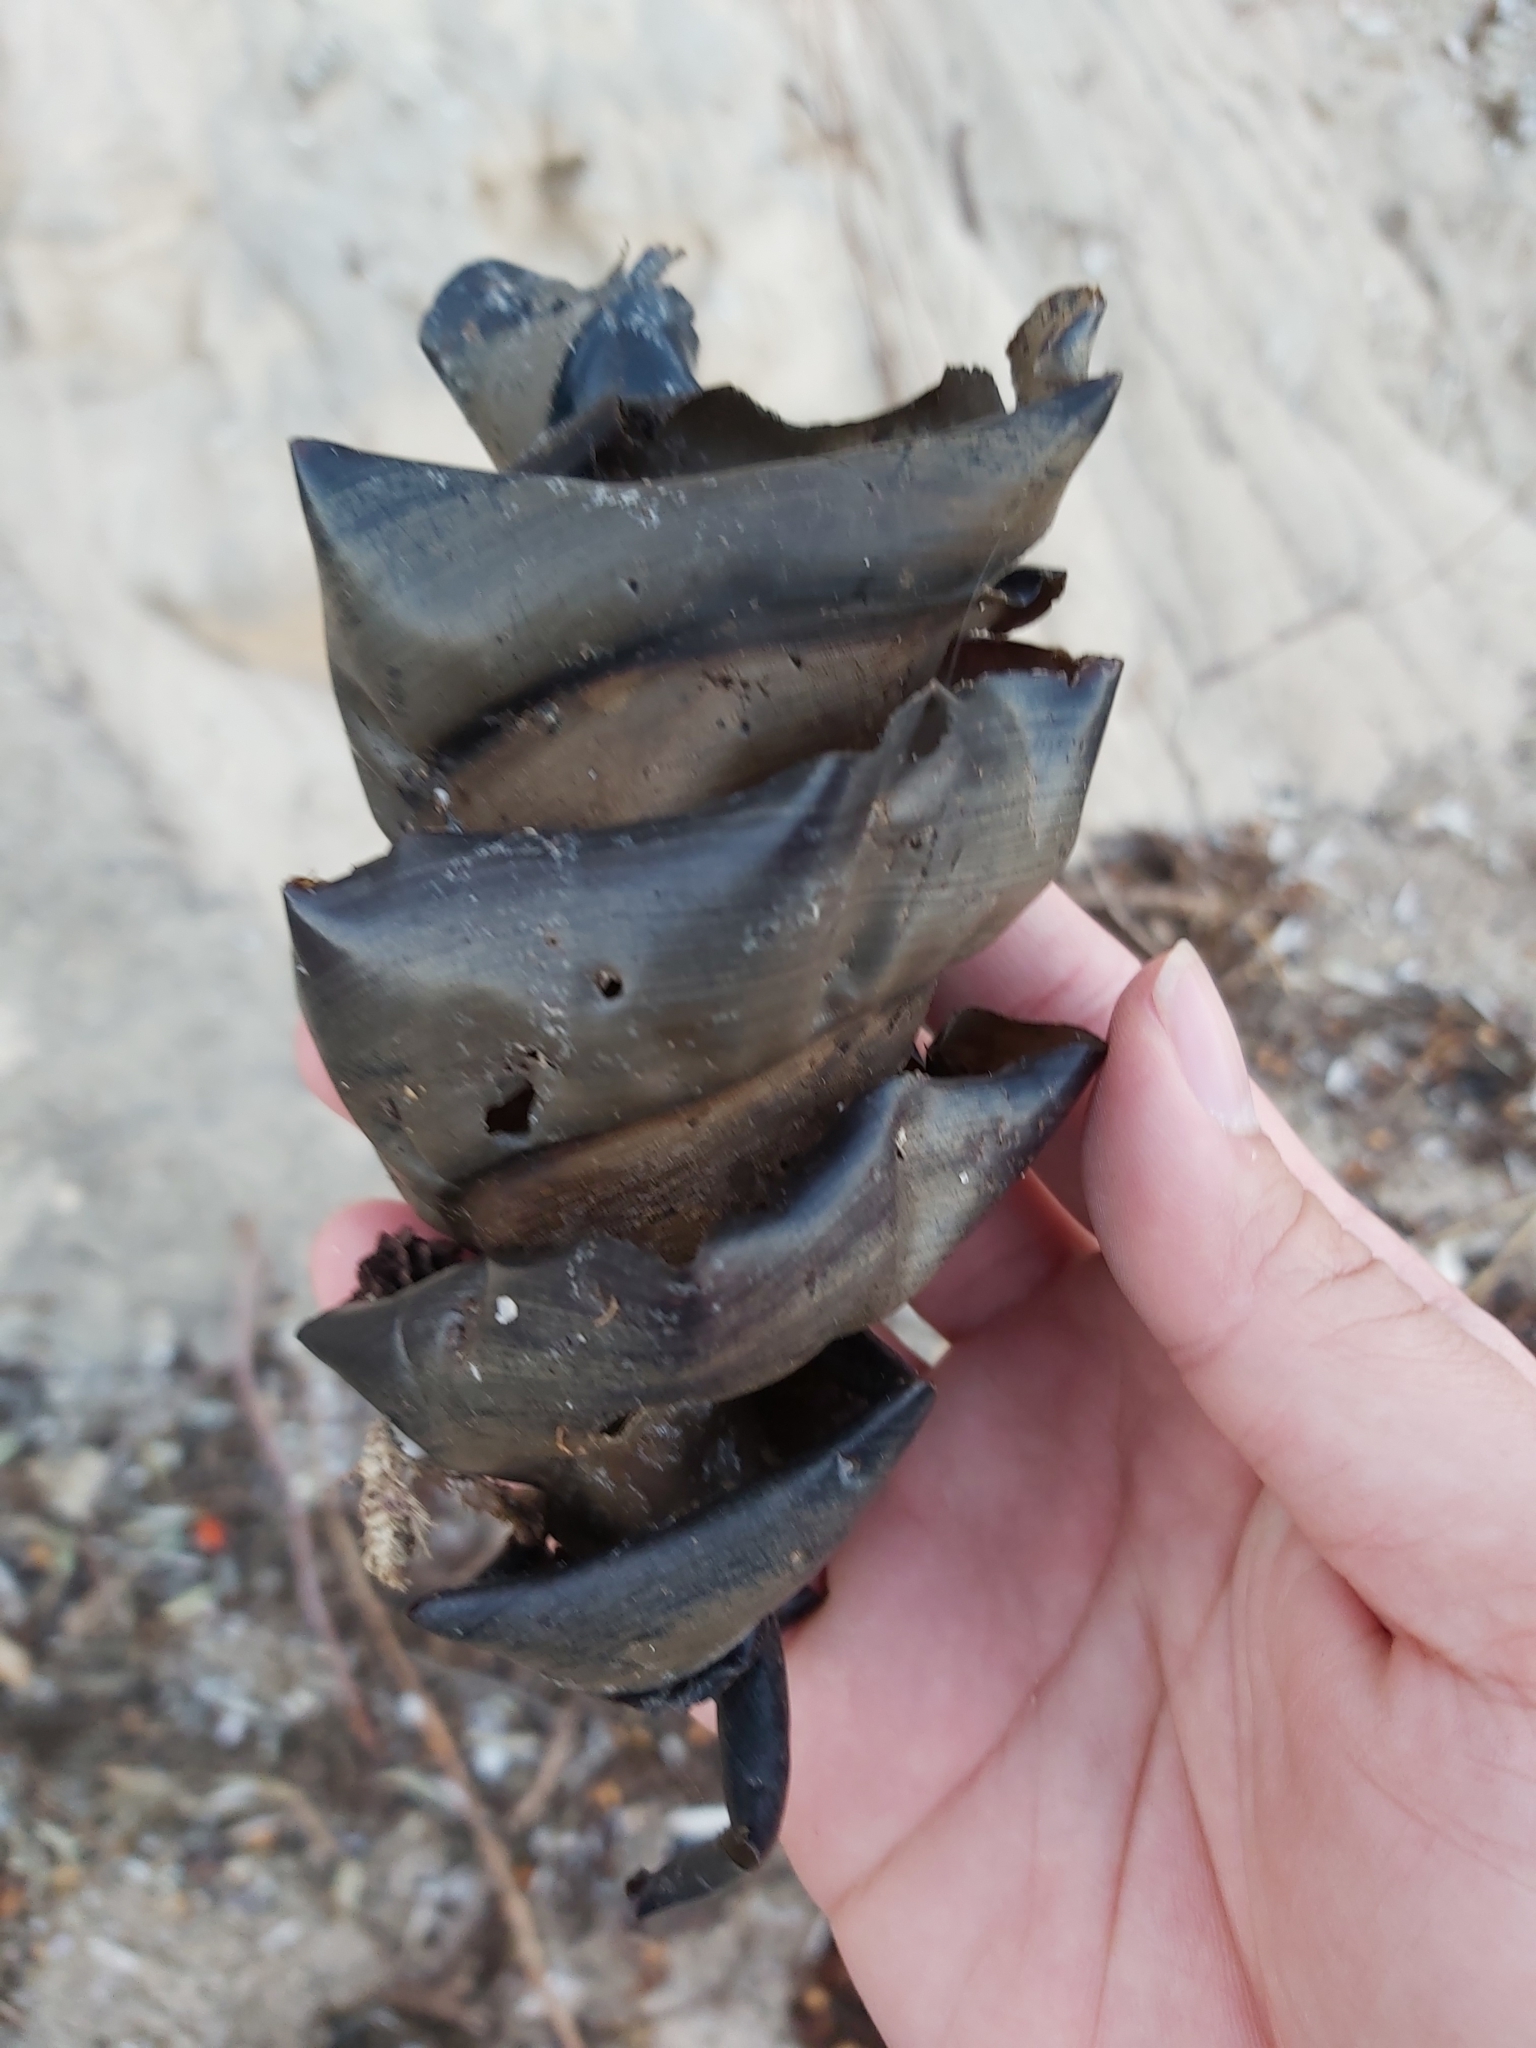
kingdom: Animalia
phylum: Chordata
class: Elasmobranchii
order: Heterodontiformes
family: Heterodontidae
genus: Heterodontus
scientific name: Heterodontus portusjacksoni
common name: Port jackson shark
